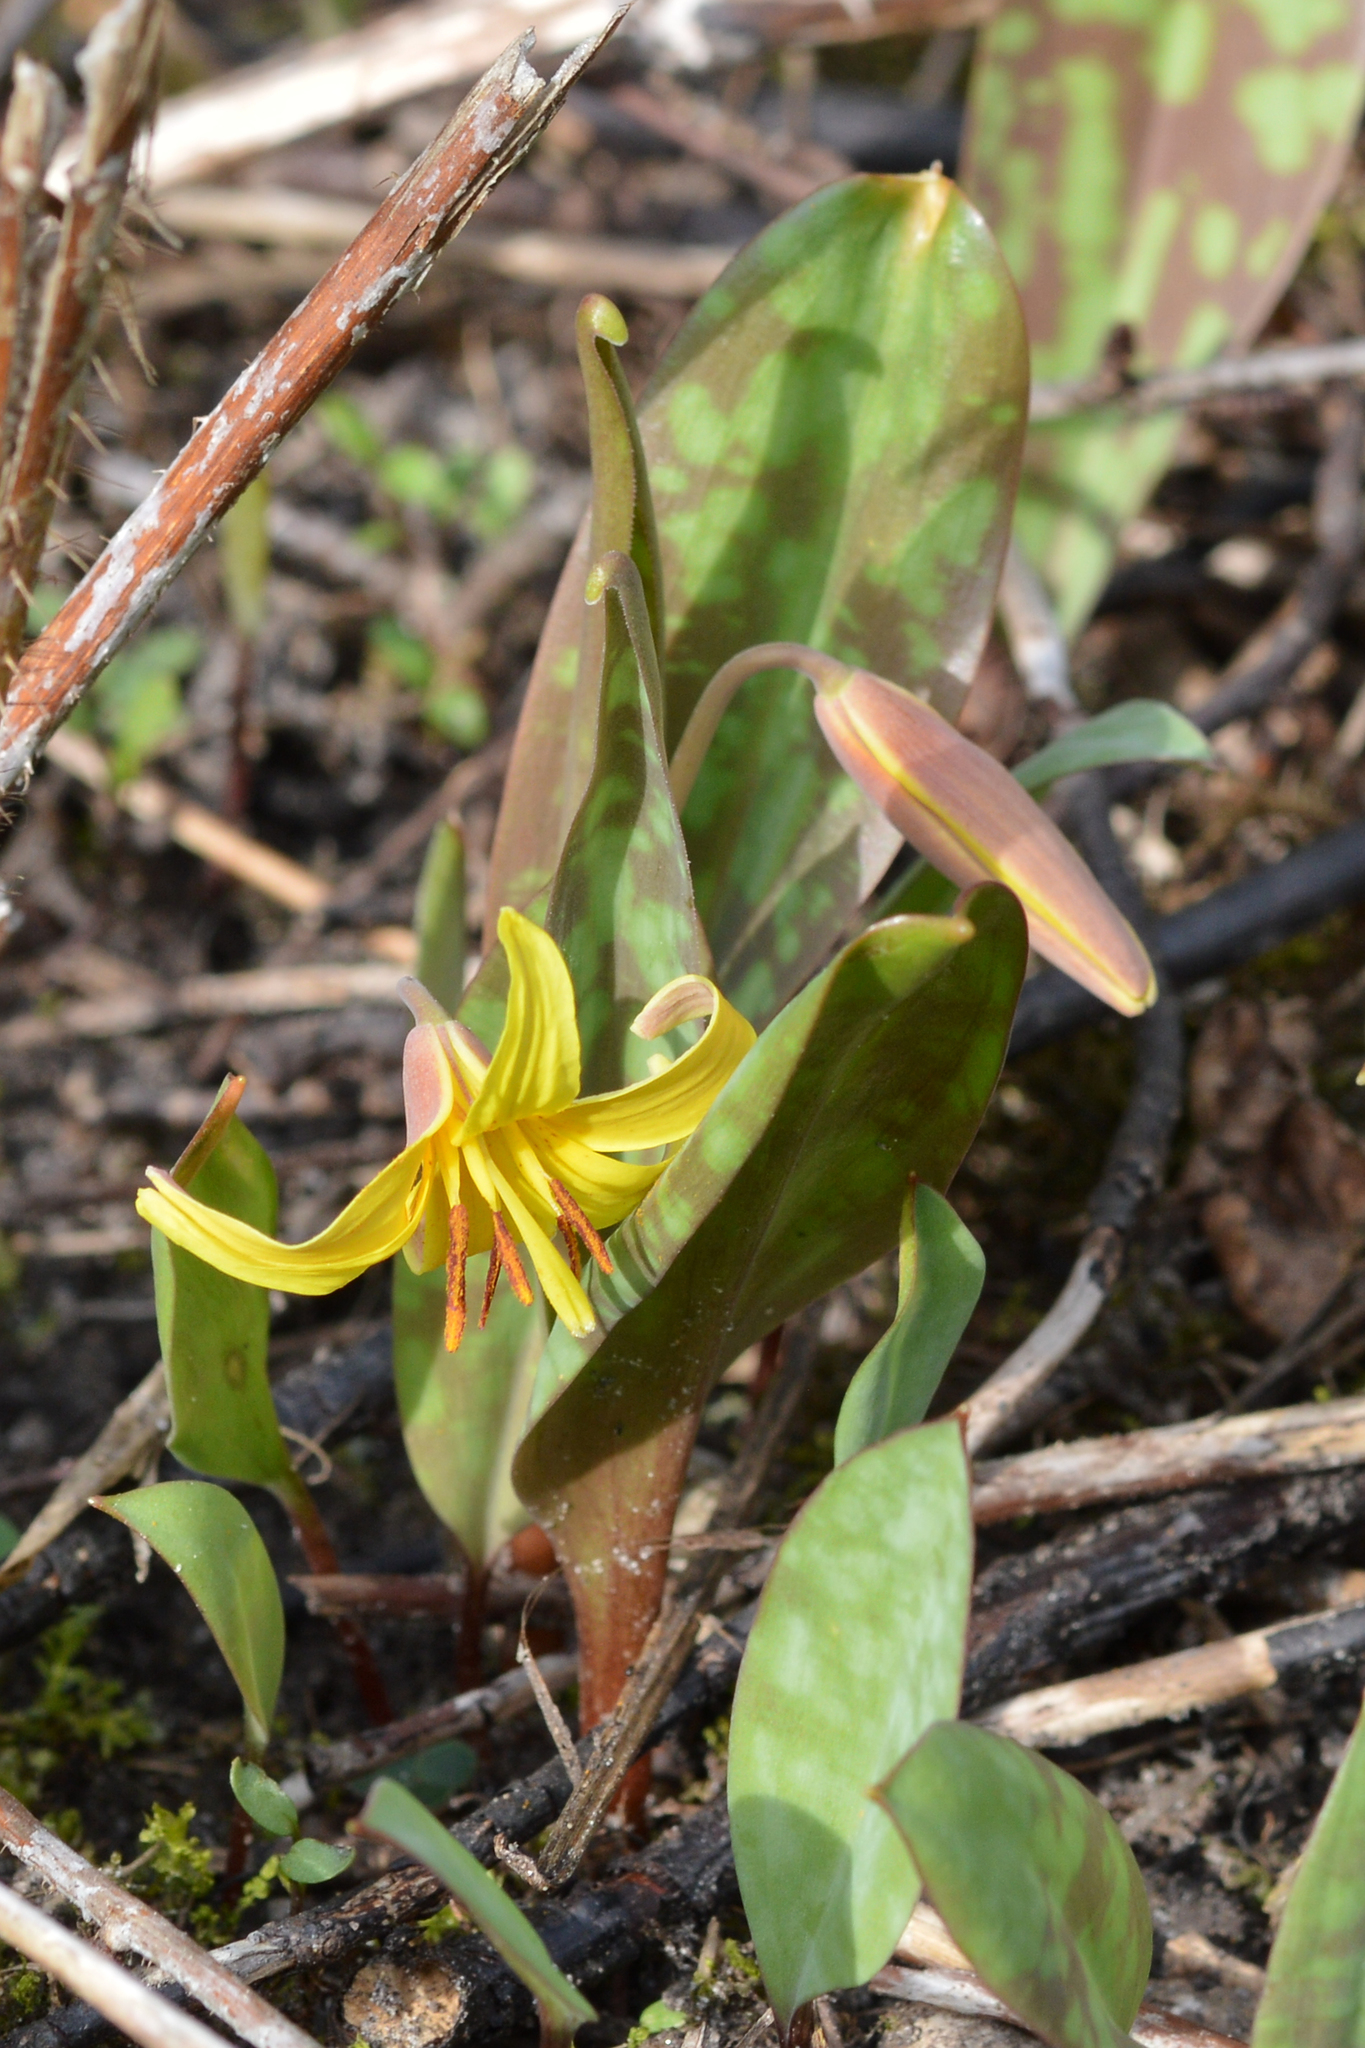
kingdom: Plantae
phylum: Tracheophyta
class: Liliopsida
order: Liliales
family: Liliaceae
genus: Erythronium
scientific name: Erythronium americanum
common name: Yellow adder's-tongue
